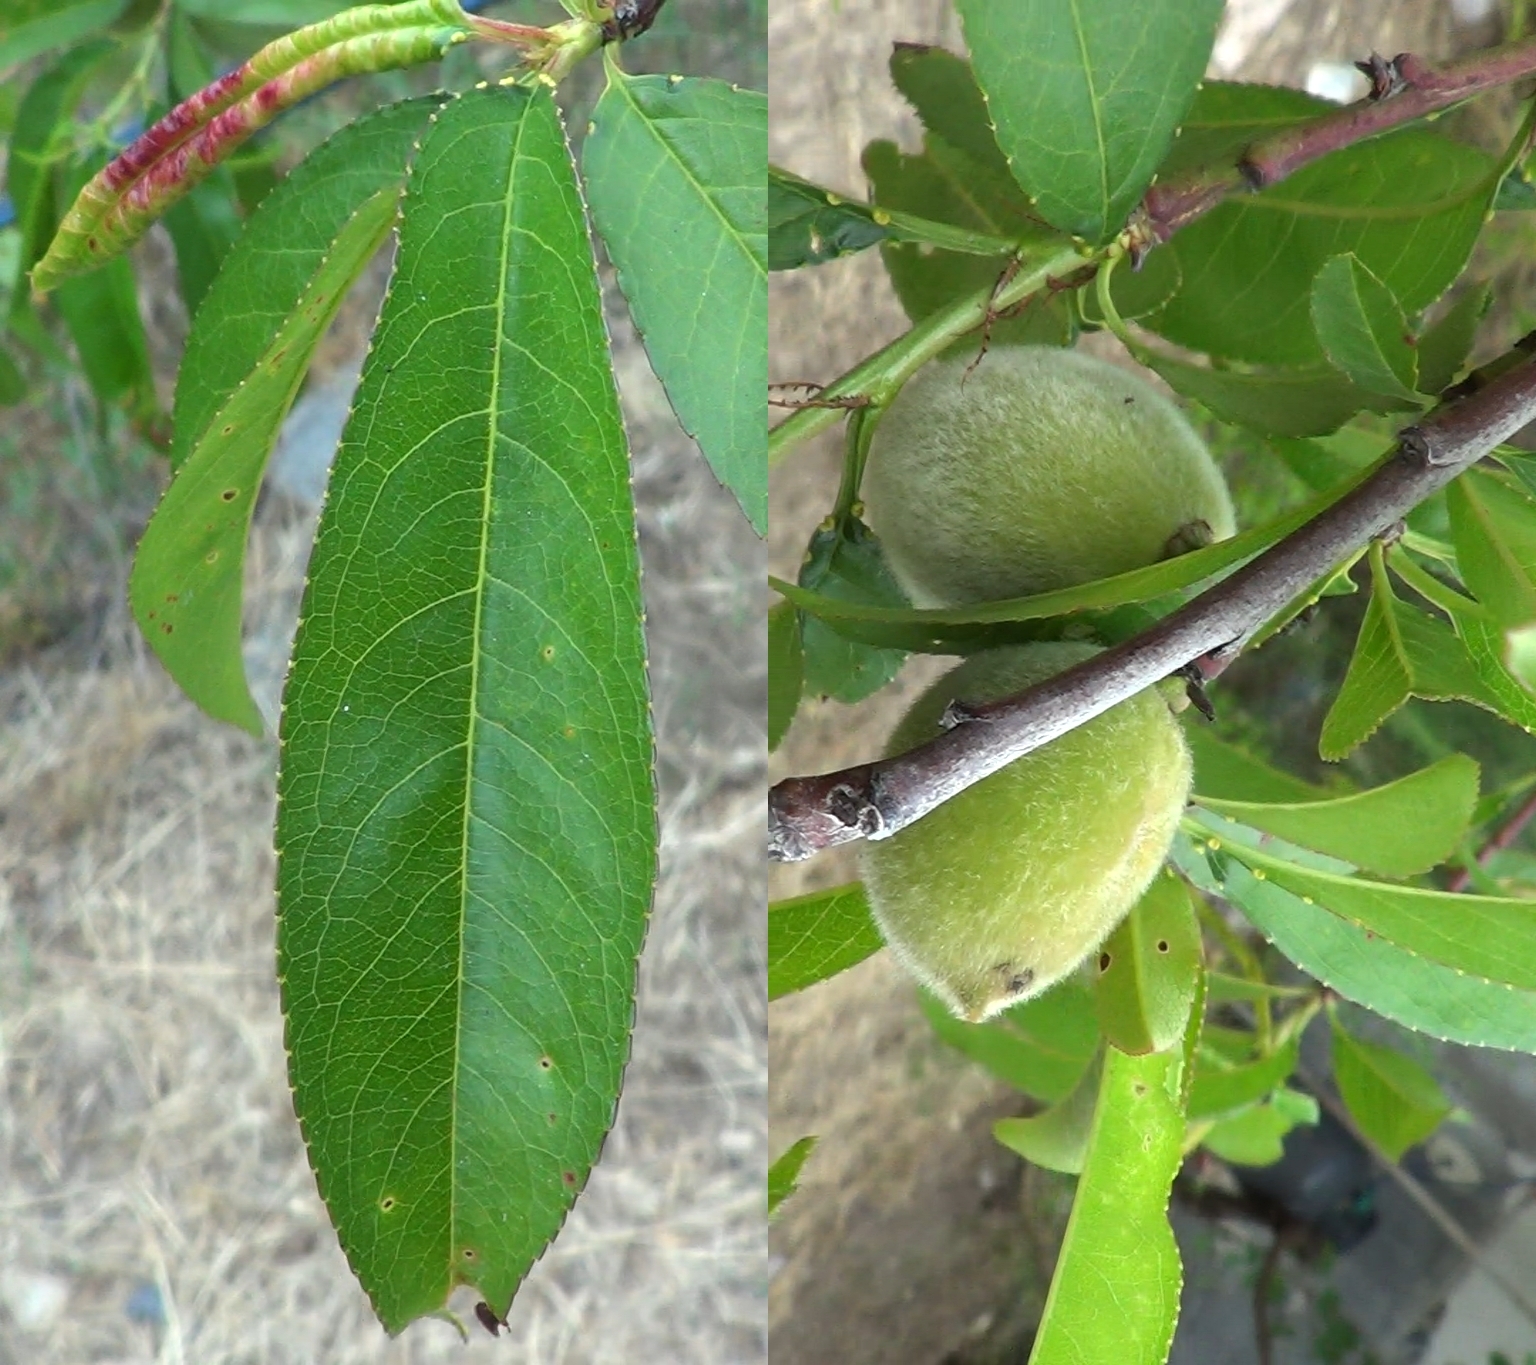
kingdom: Fungi
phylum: Ascomycota
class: Taphrinomycetes
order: Taphrinales
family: Taphrinaceae
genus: Taphrina
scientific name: Taphrina deformans
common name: Peach leaf curl
